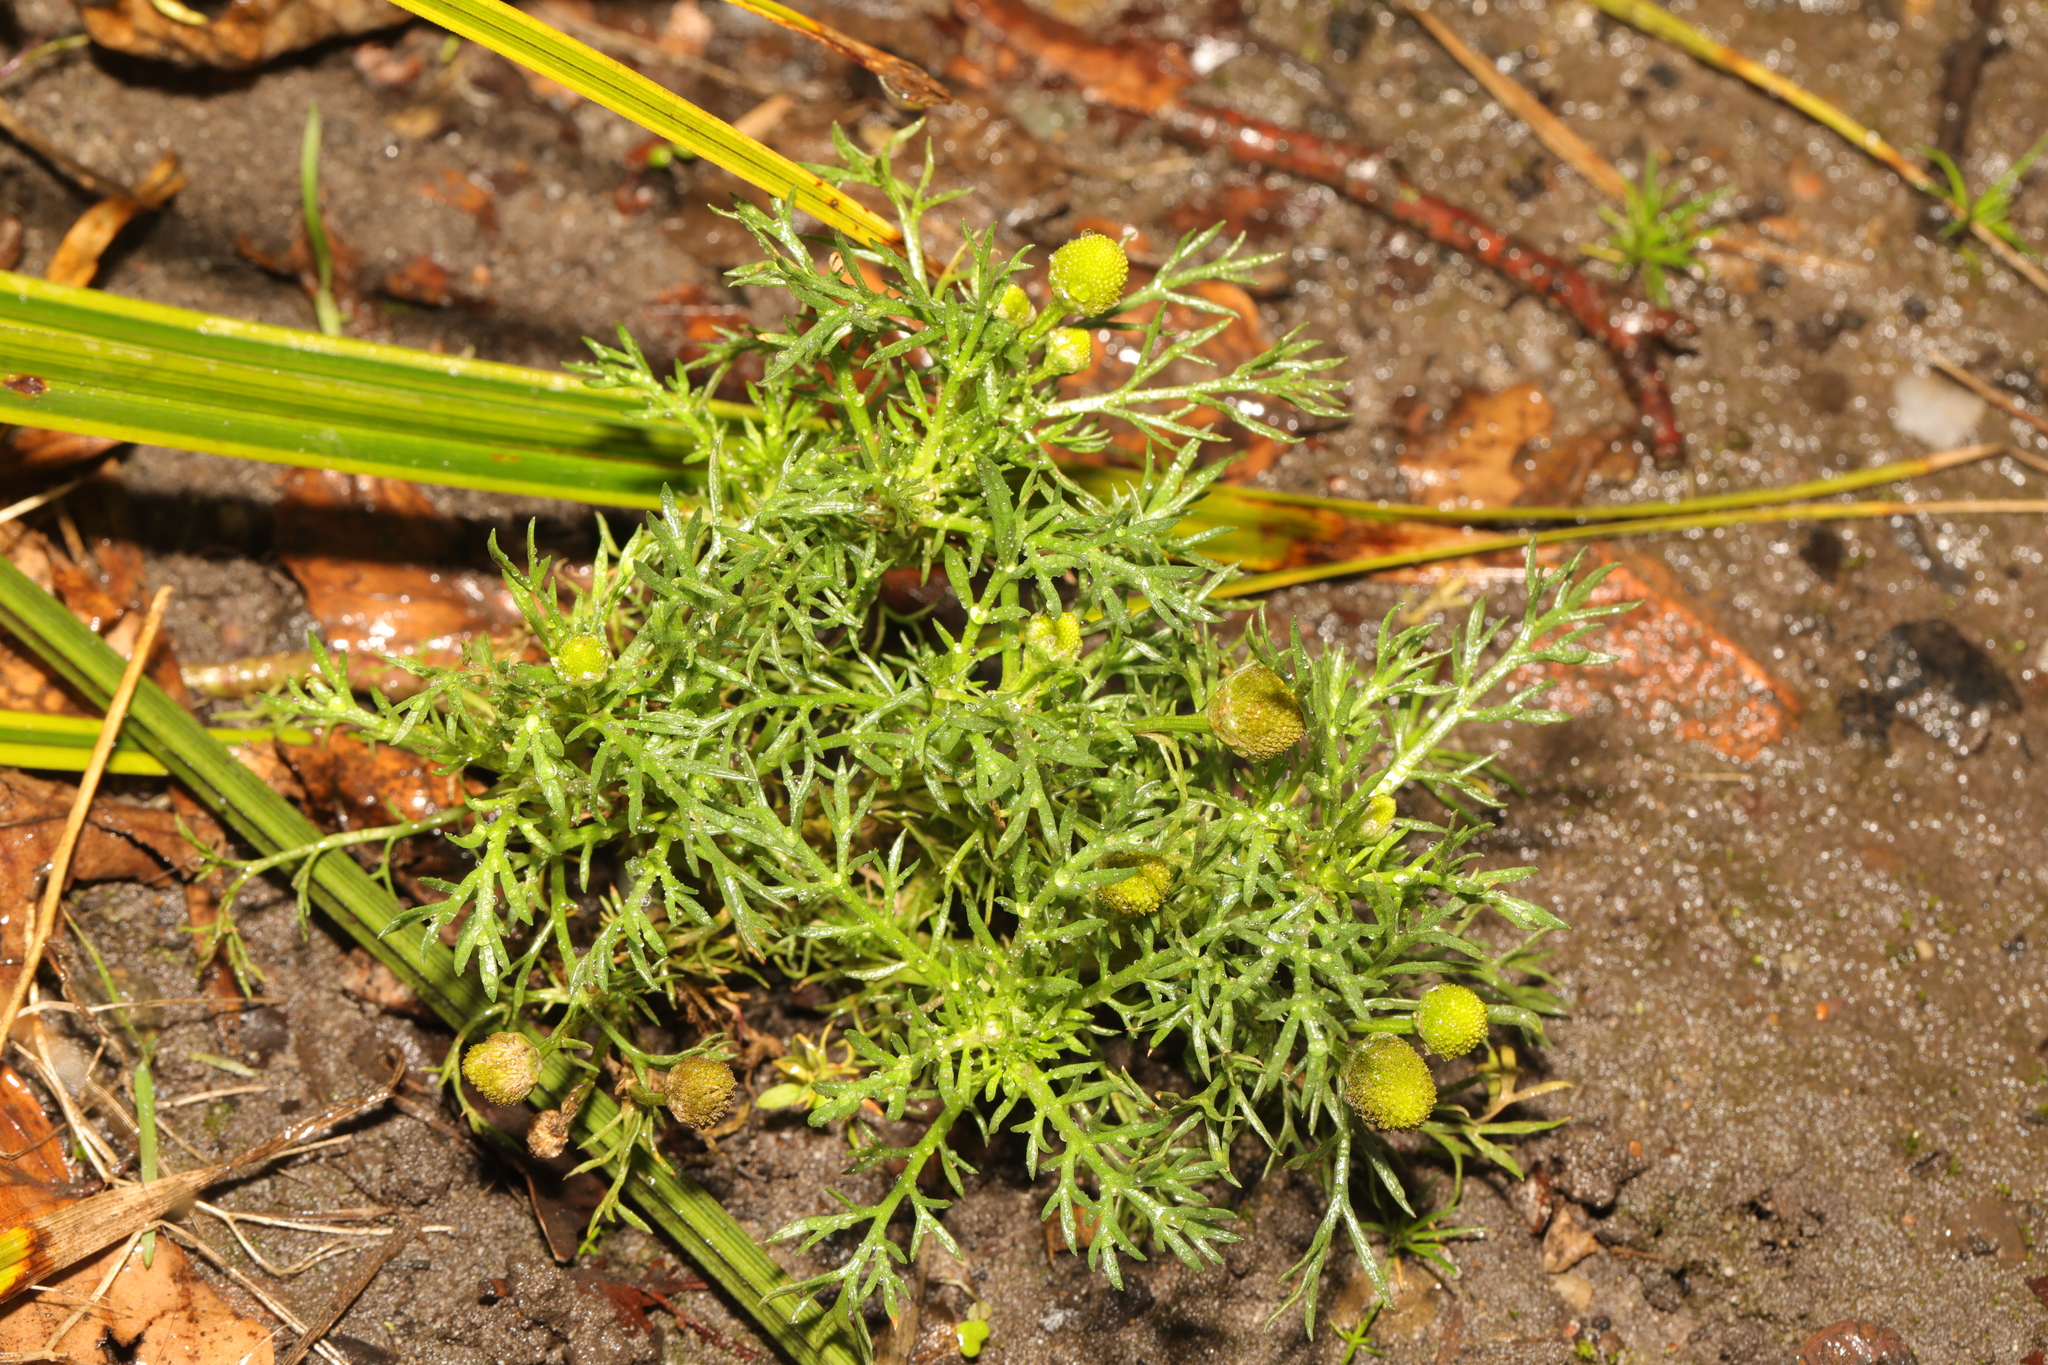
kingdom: Plantae
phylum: Tracheophyta
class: Magnoliopsida
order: Asterales
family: Asteraceae
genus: Matricaria
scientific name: Matricaria discoidea
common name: Disc mayweed
